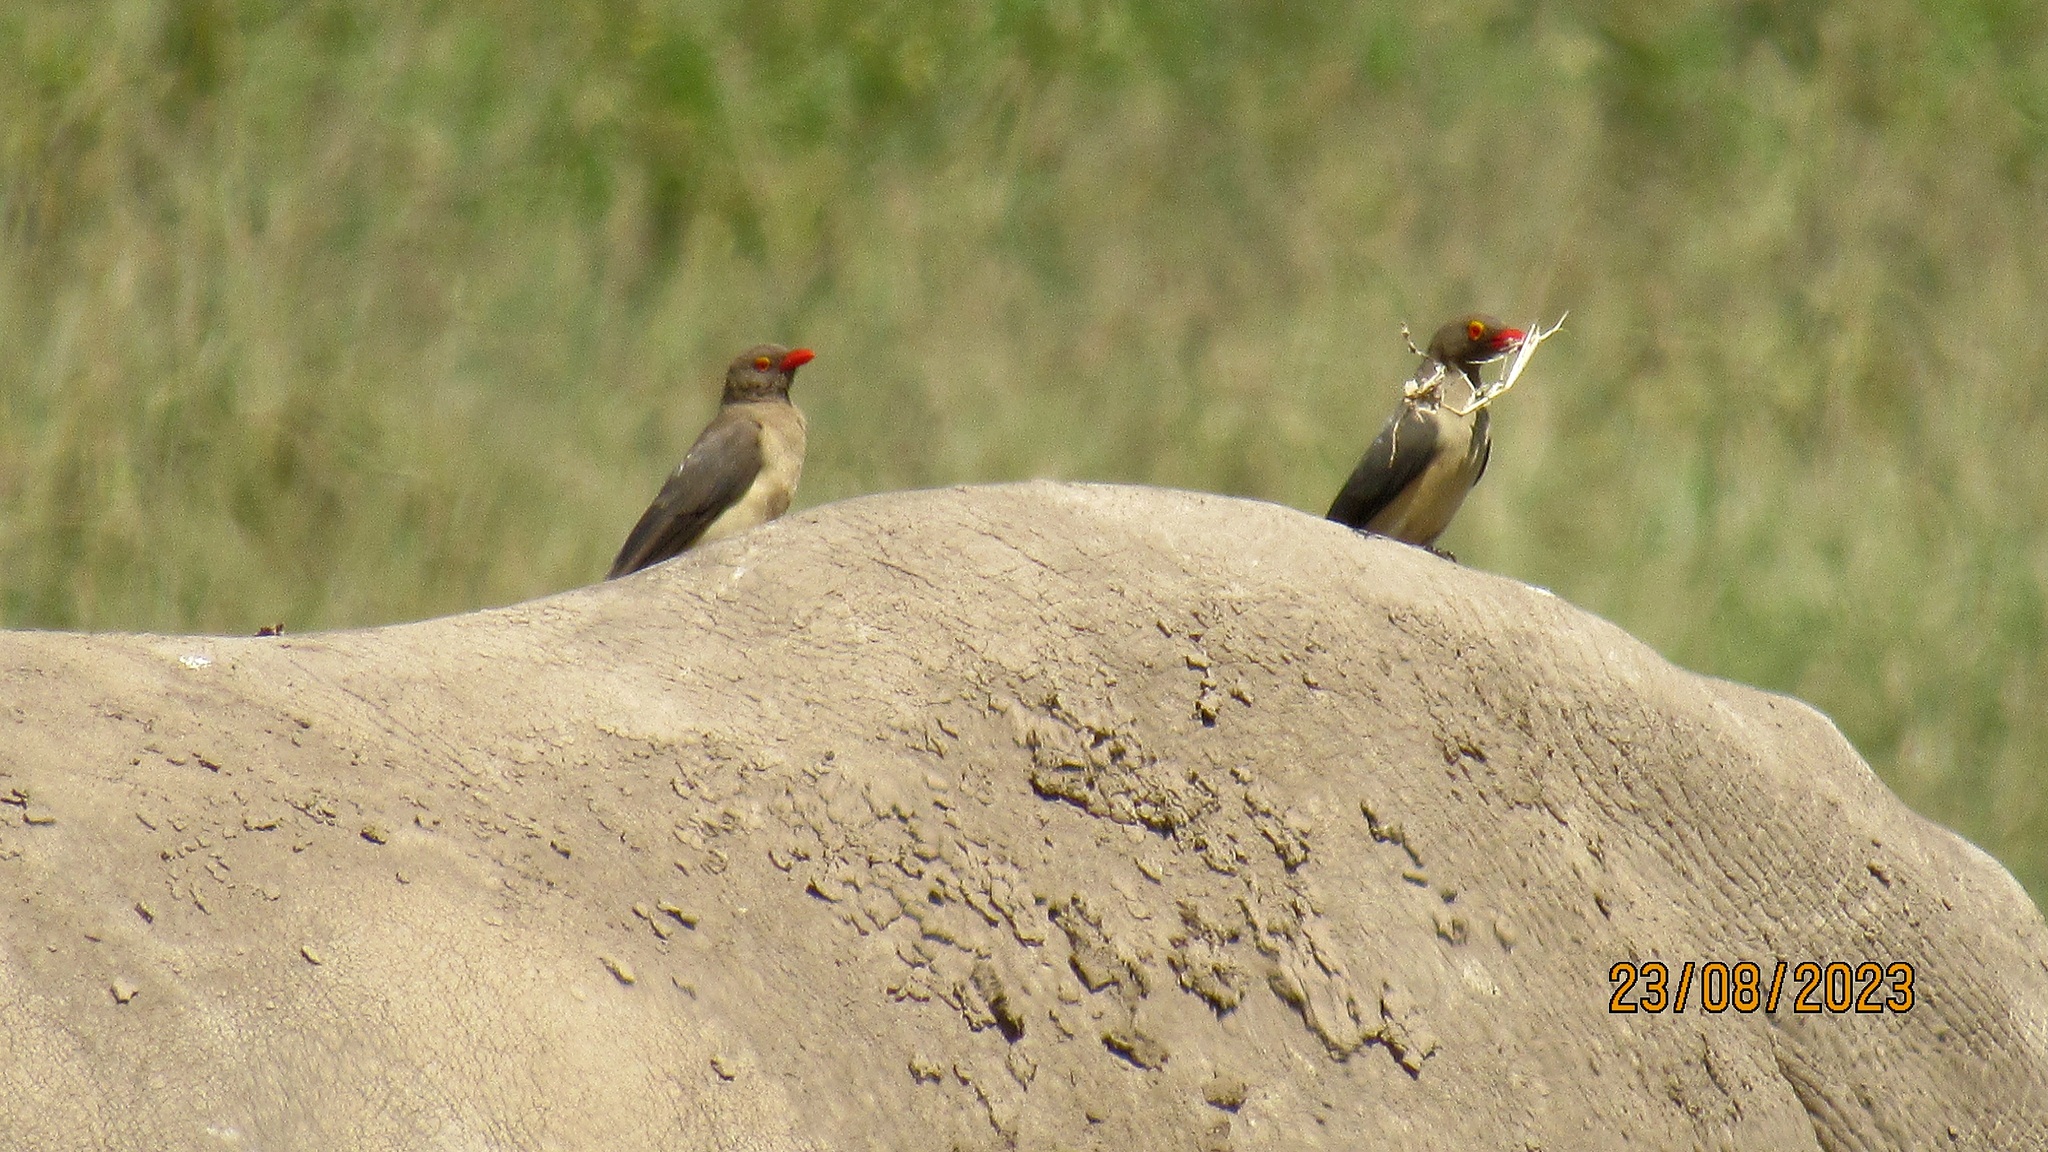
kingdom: Animalia
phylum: Chordata
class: Aves
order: Passeriformes
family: Buphagidae
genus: Buphagus
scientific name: Buphagus erythrorhynchus
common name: Red-billed oxpecker
